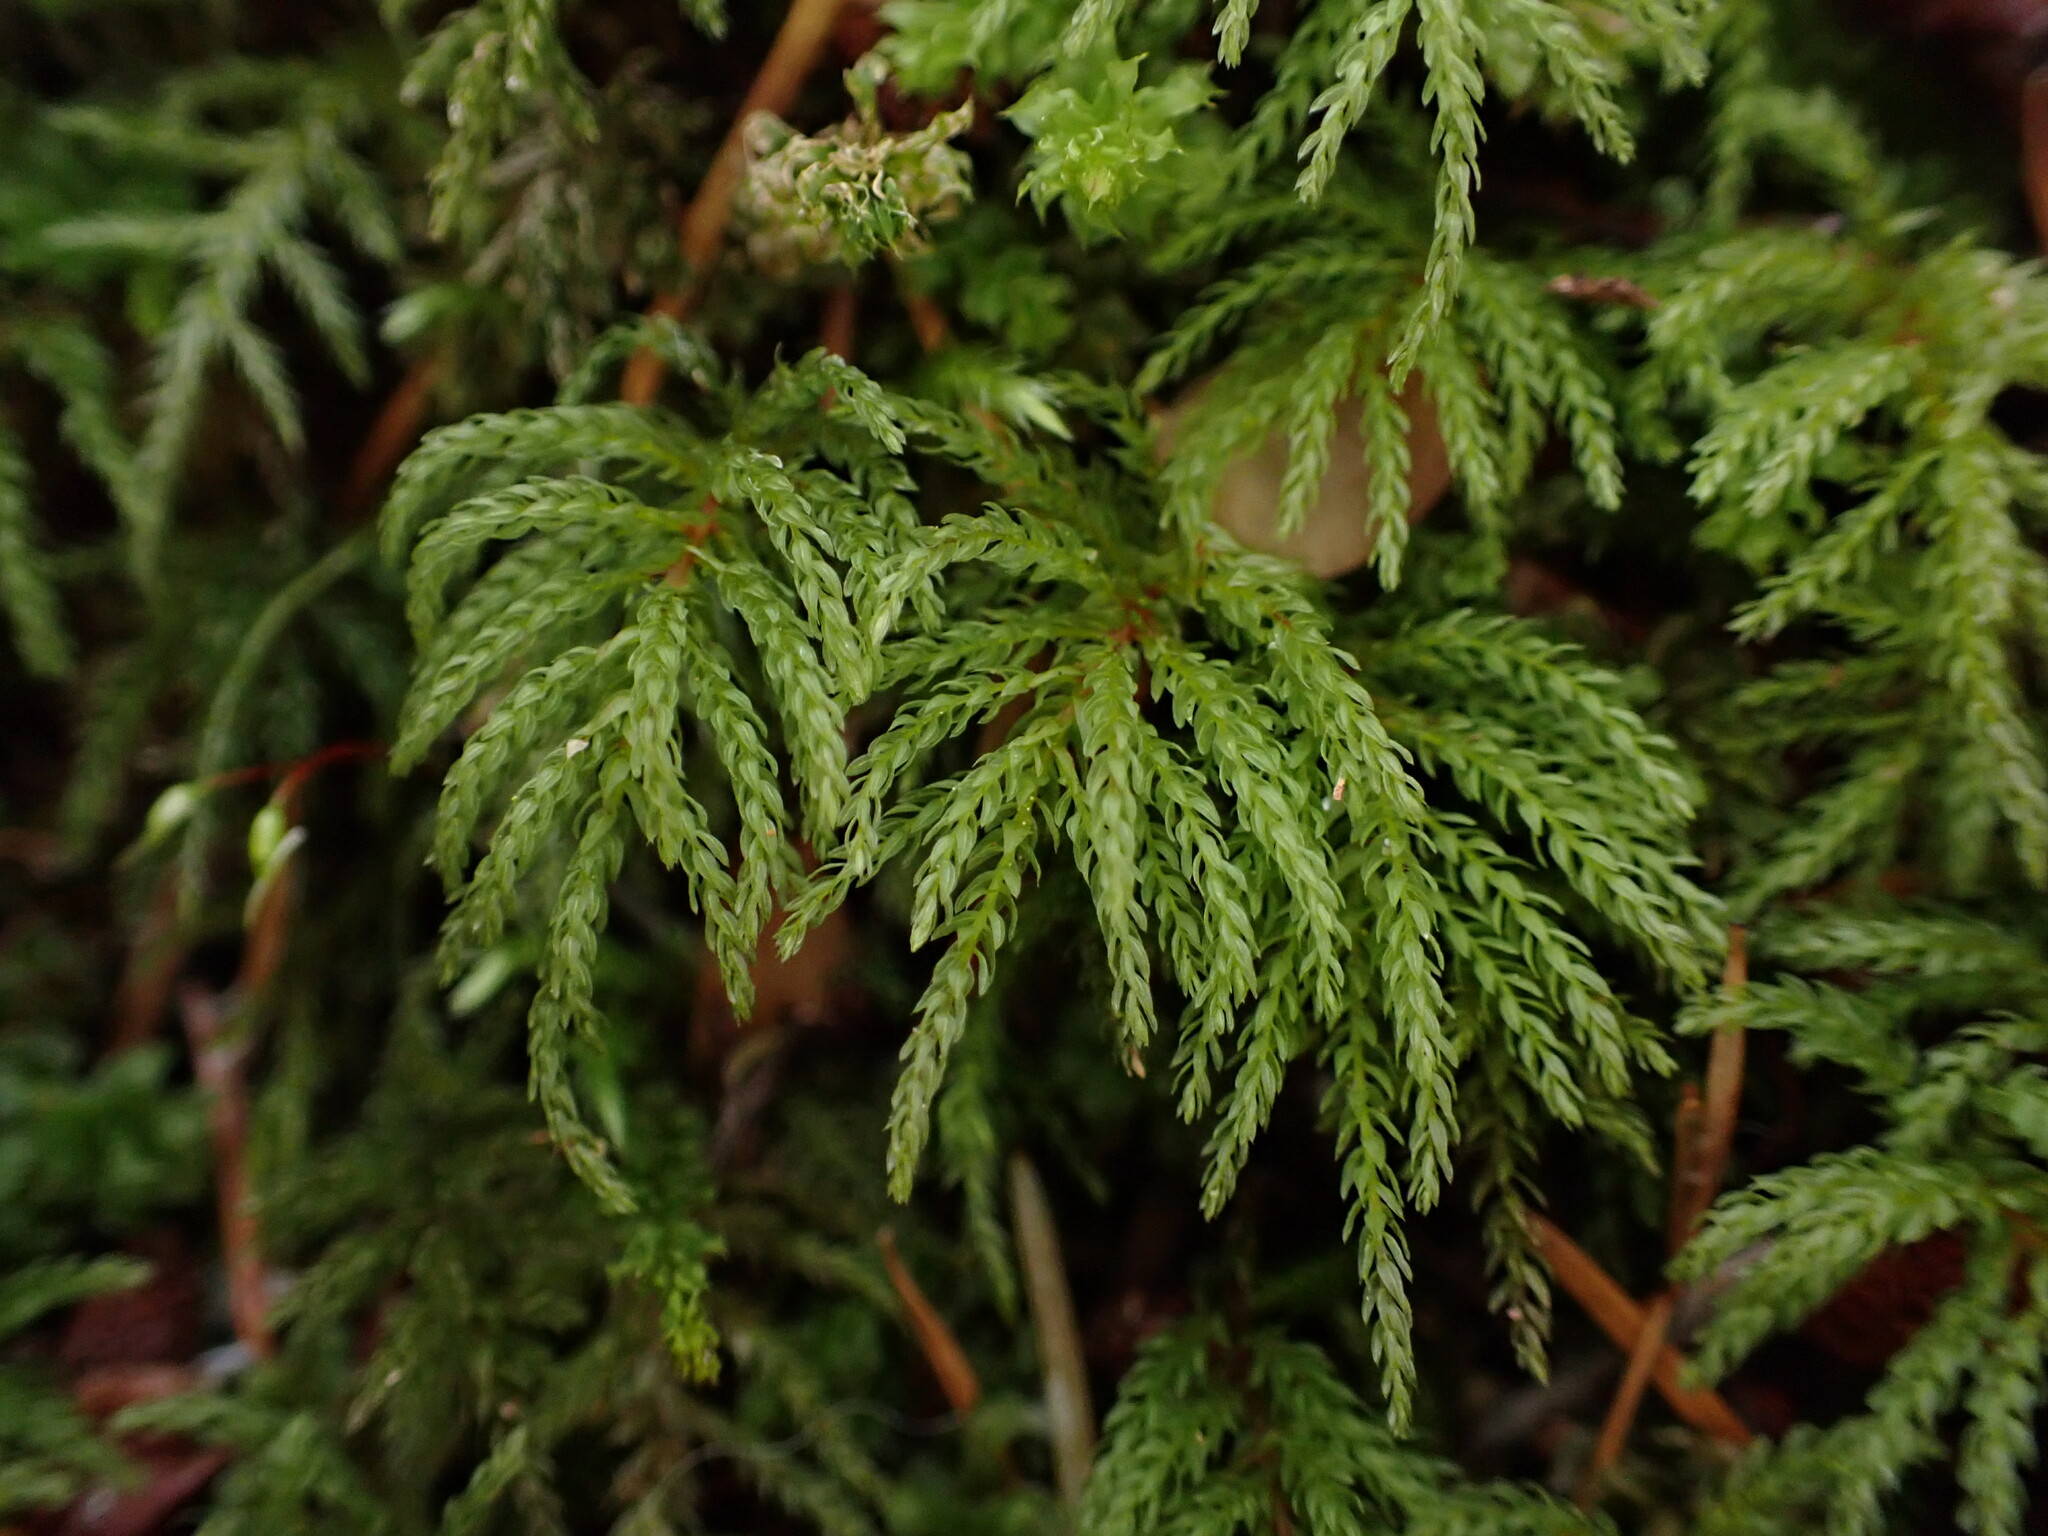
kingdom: Plantae
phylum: Bryophyta
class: Bryopsida
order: Bryales
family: Mniaceae
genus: Leucolepis
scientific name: Leucolepis acanthoneura
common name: Leucolepis umbrella moss
